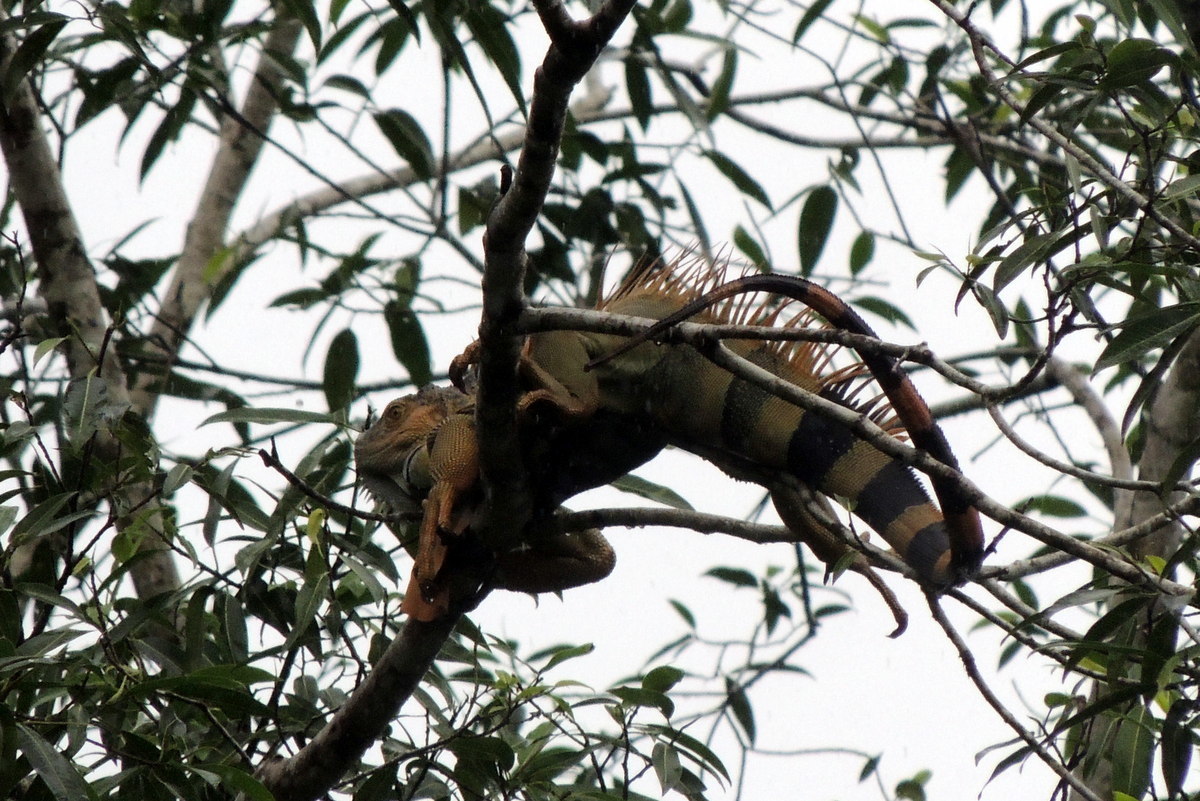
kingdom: Animalia
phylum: Chordata
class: Squamata
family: Iguanidae
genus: Iguana
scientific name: Iguana iguana
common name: Green iguana
